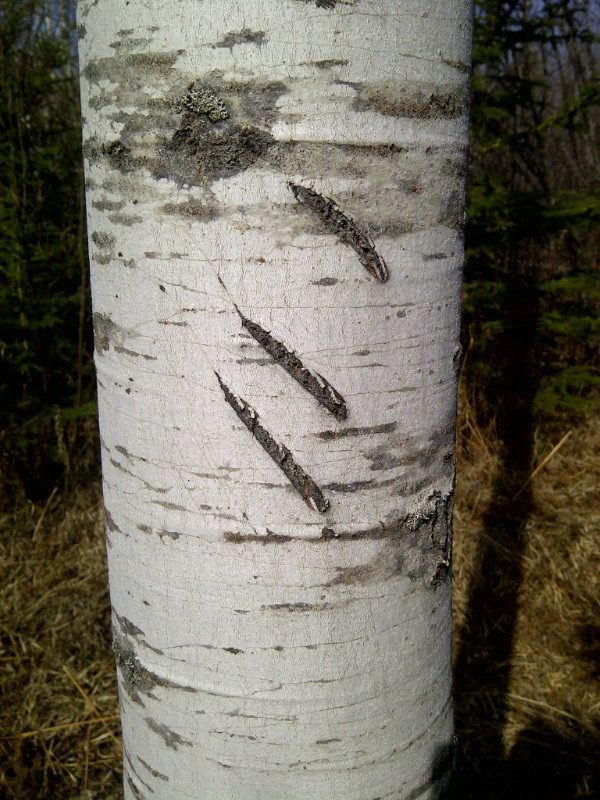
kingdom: Animalia
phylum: Chordata
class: Mammalia
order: Carnivora
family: Ursidae
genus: Ursus
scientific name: Ursus americanus
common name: American black bear
